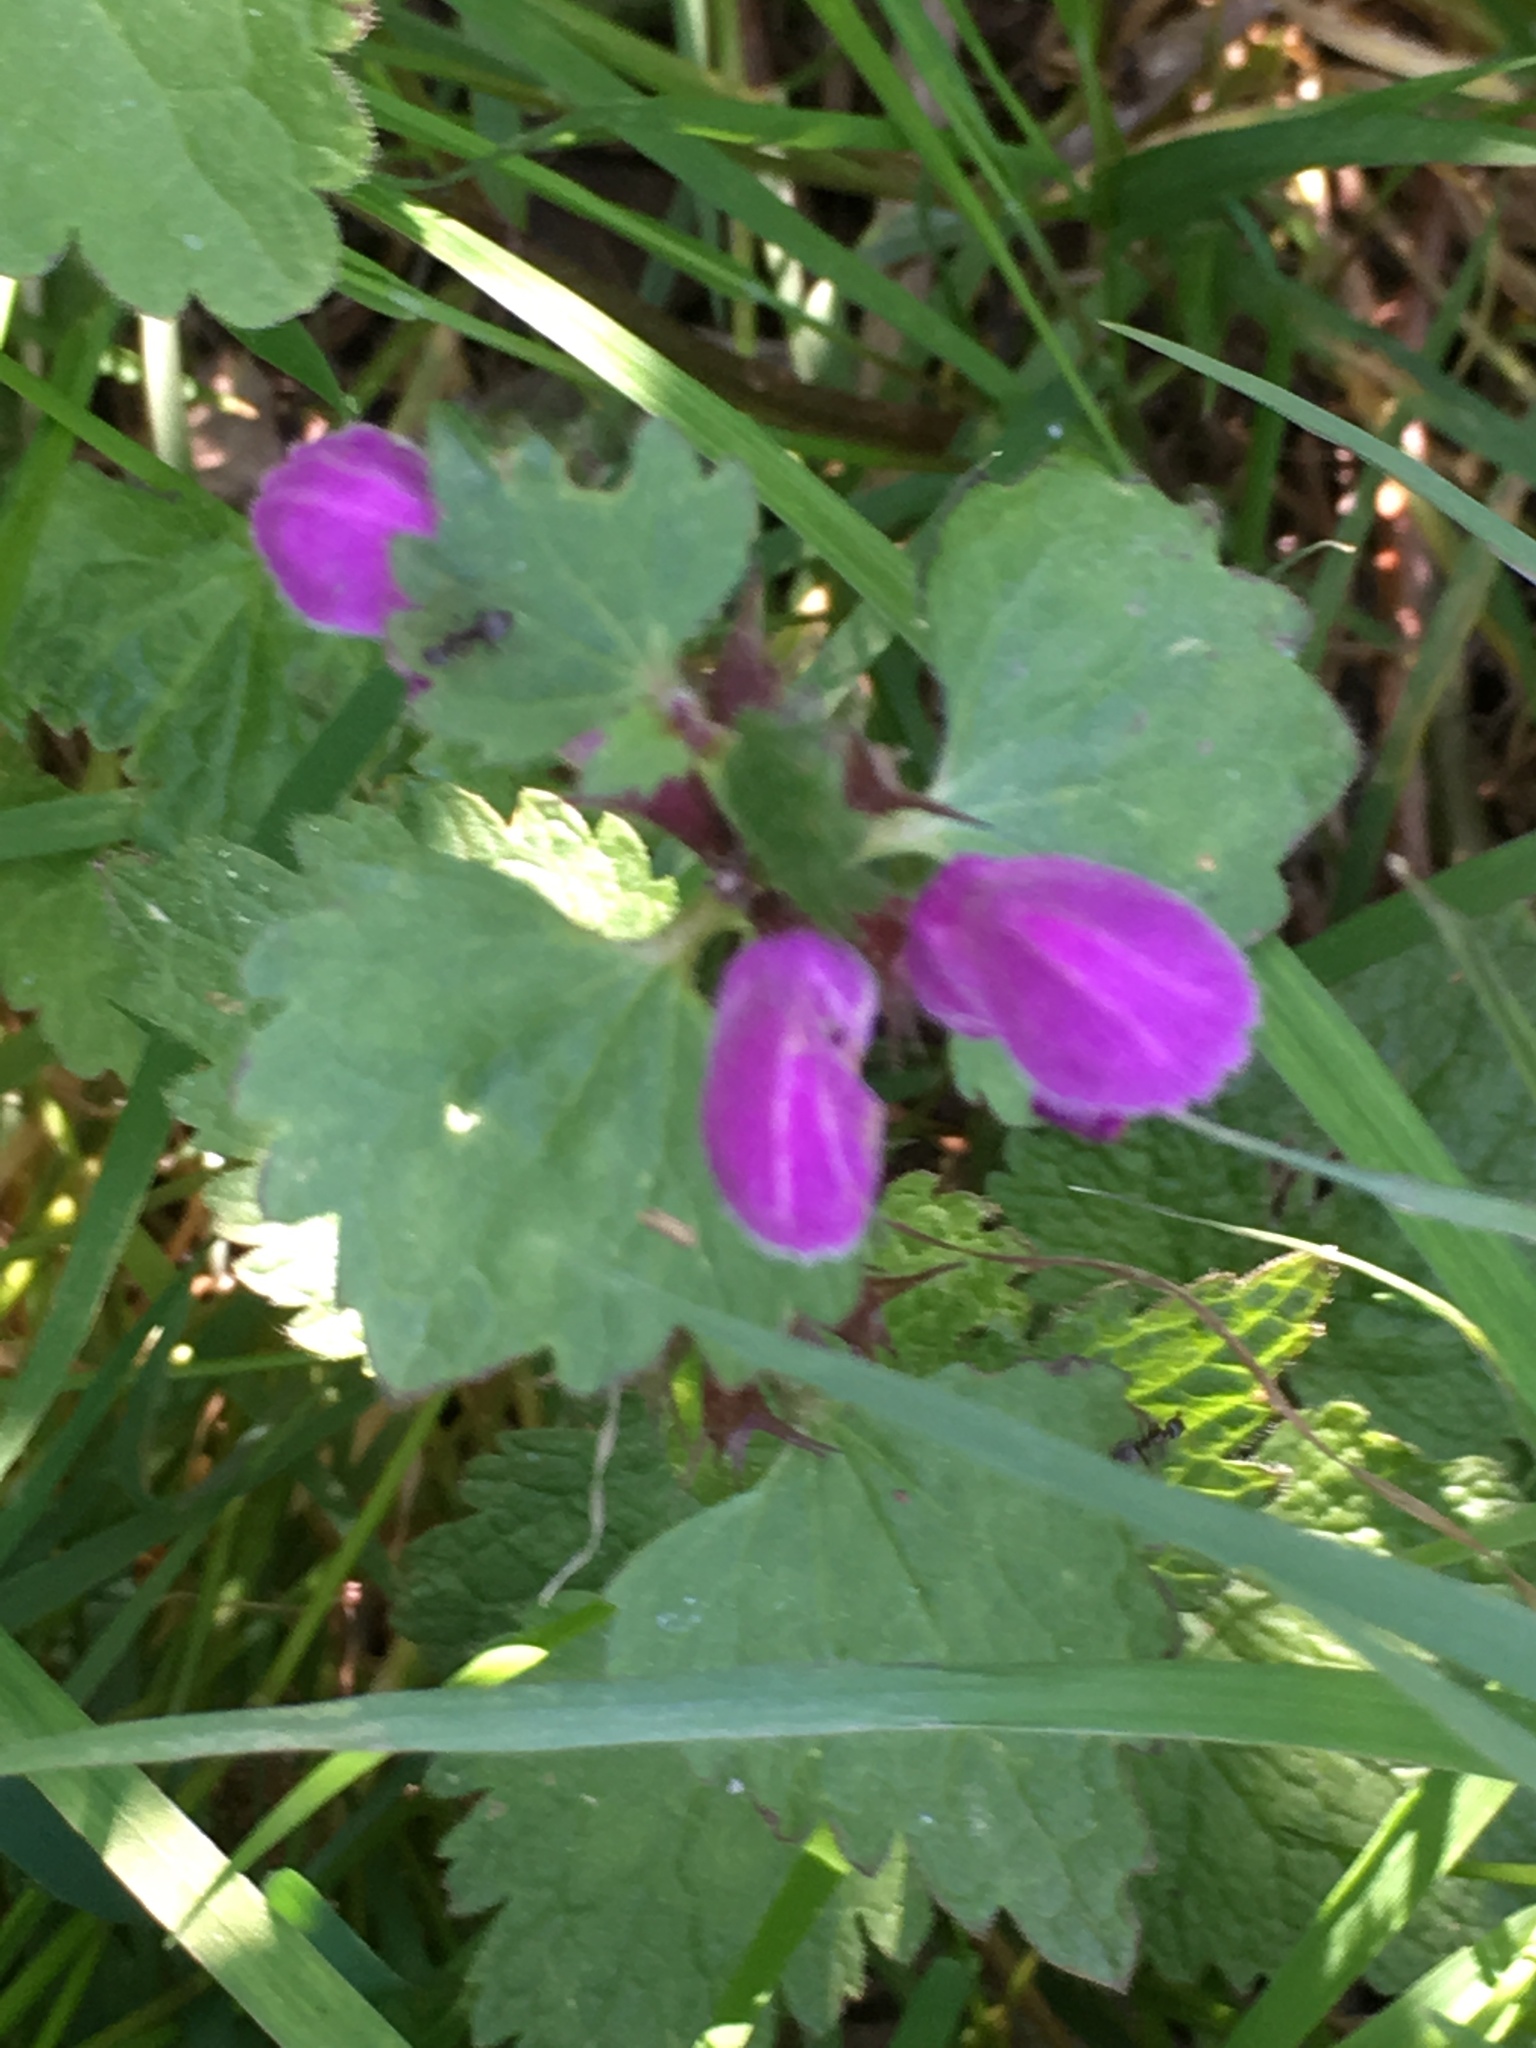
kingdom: Plantae
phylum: Tracheophyta
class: Magnoliopsida
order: Lamiales
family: Lamiaceae
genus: Lamium
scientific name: Lamium maculatum
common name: Spotted dead-nettle
